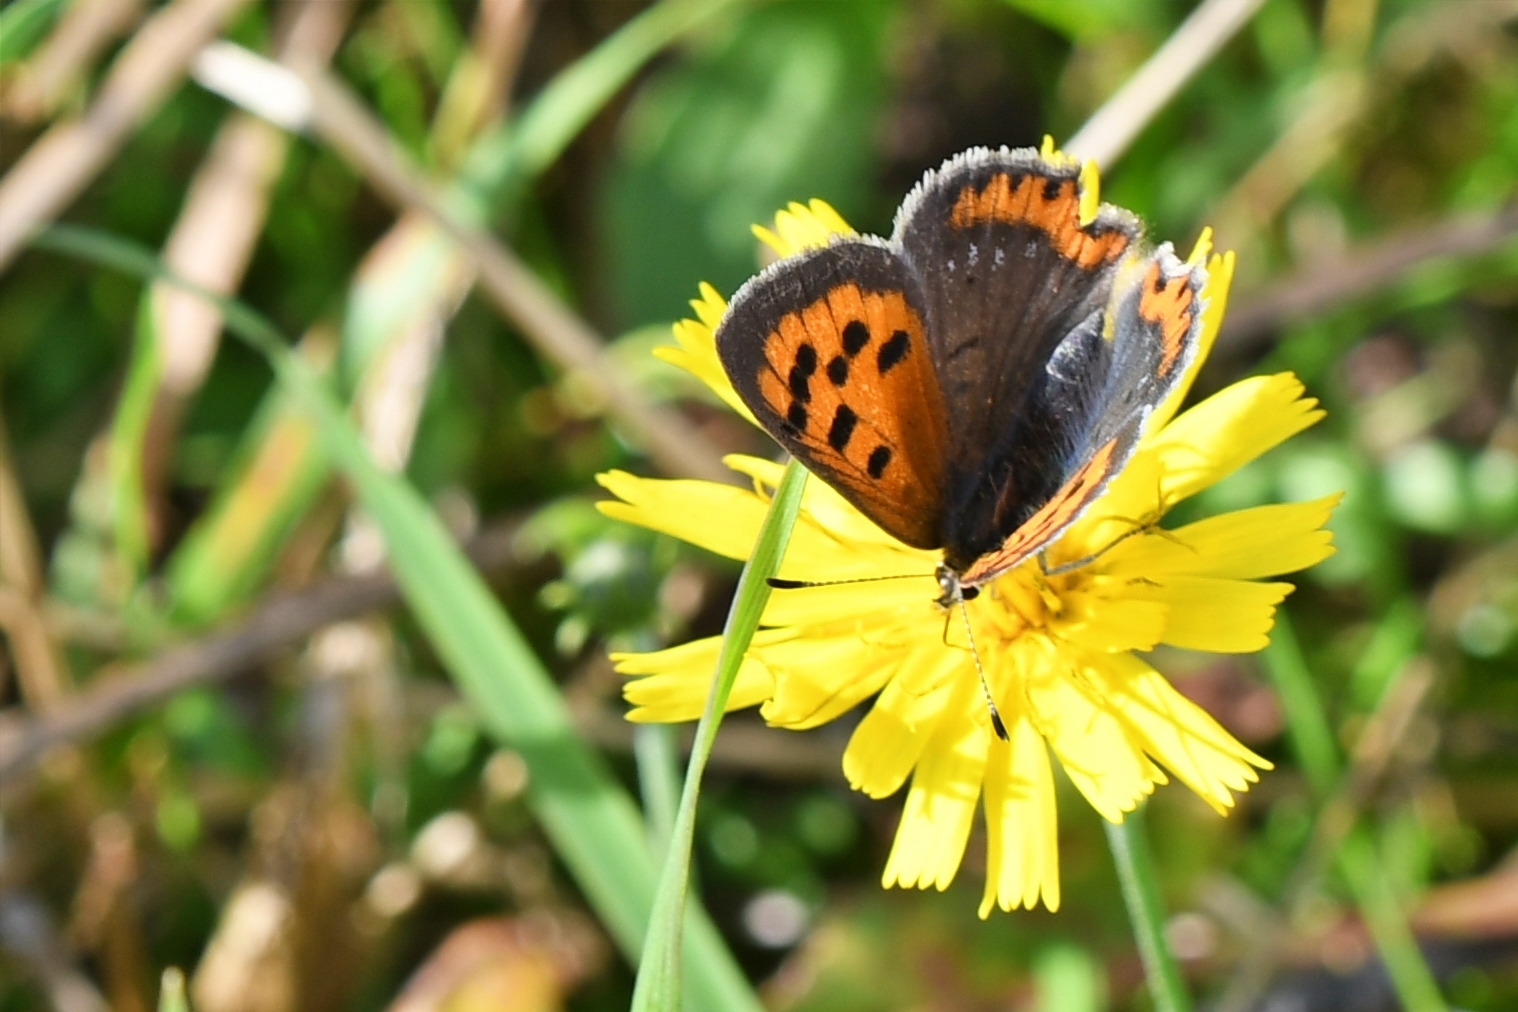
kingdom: Animalia
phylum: Arthropoda
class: Insecta
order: Lepidoptera
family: Lycaenidae
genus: Lycaena
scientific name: Lycaena phlaeas
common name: Small copper
